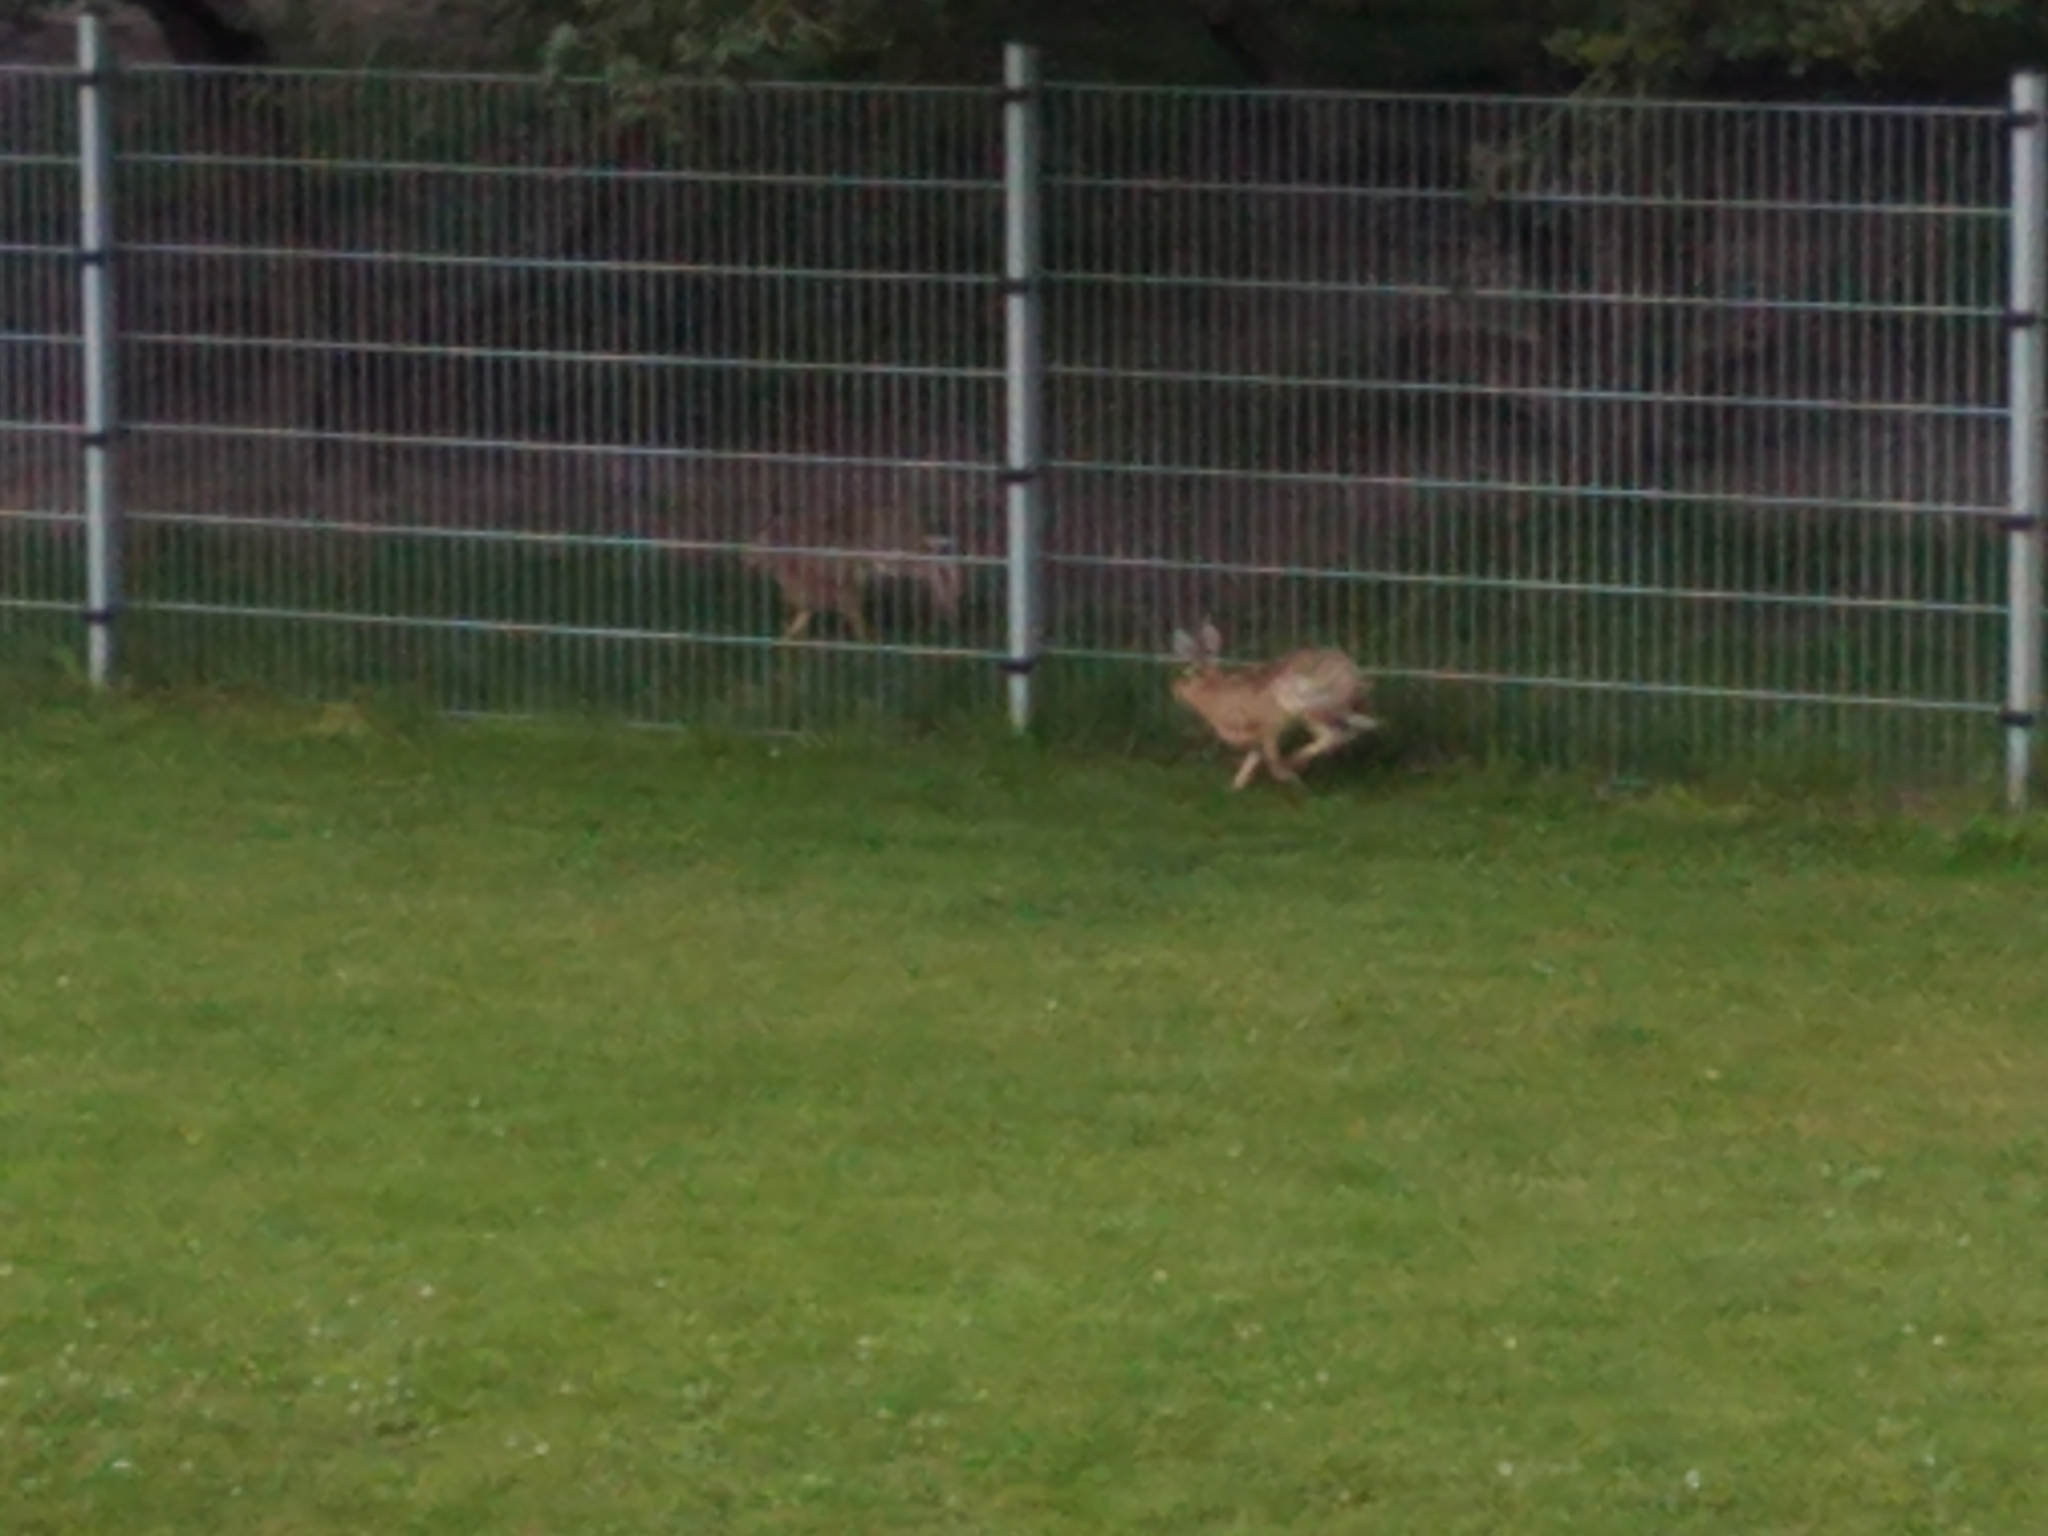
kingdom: Animalia
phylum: Chordata
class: Mammalia
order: Lagomorpha
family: Leporidae
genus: Lepus
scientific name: Lepus europaeus
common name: European hare
